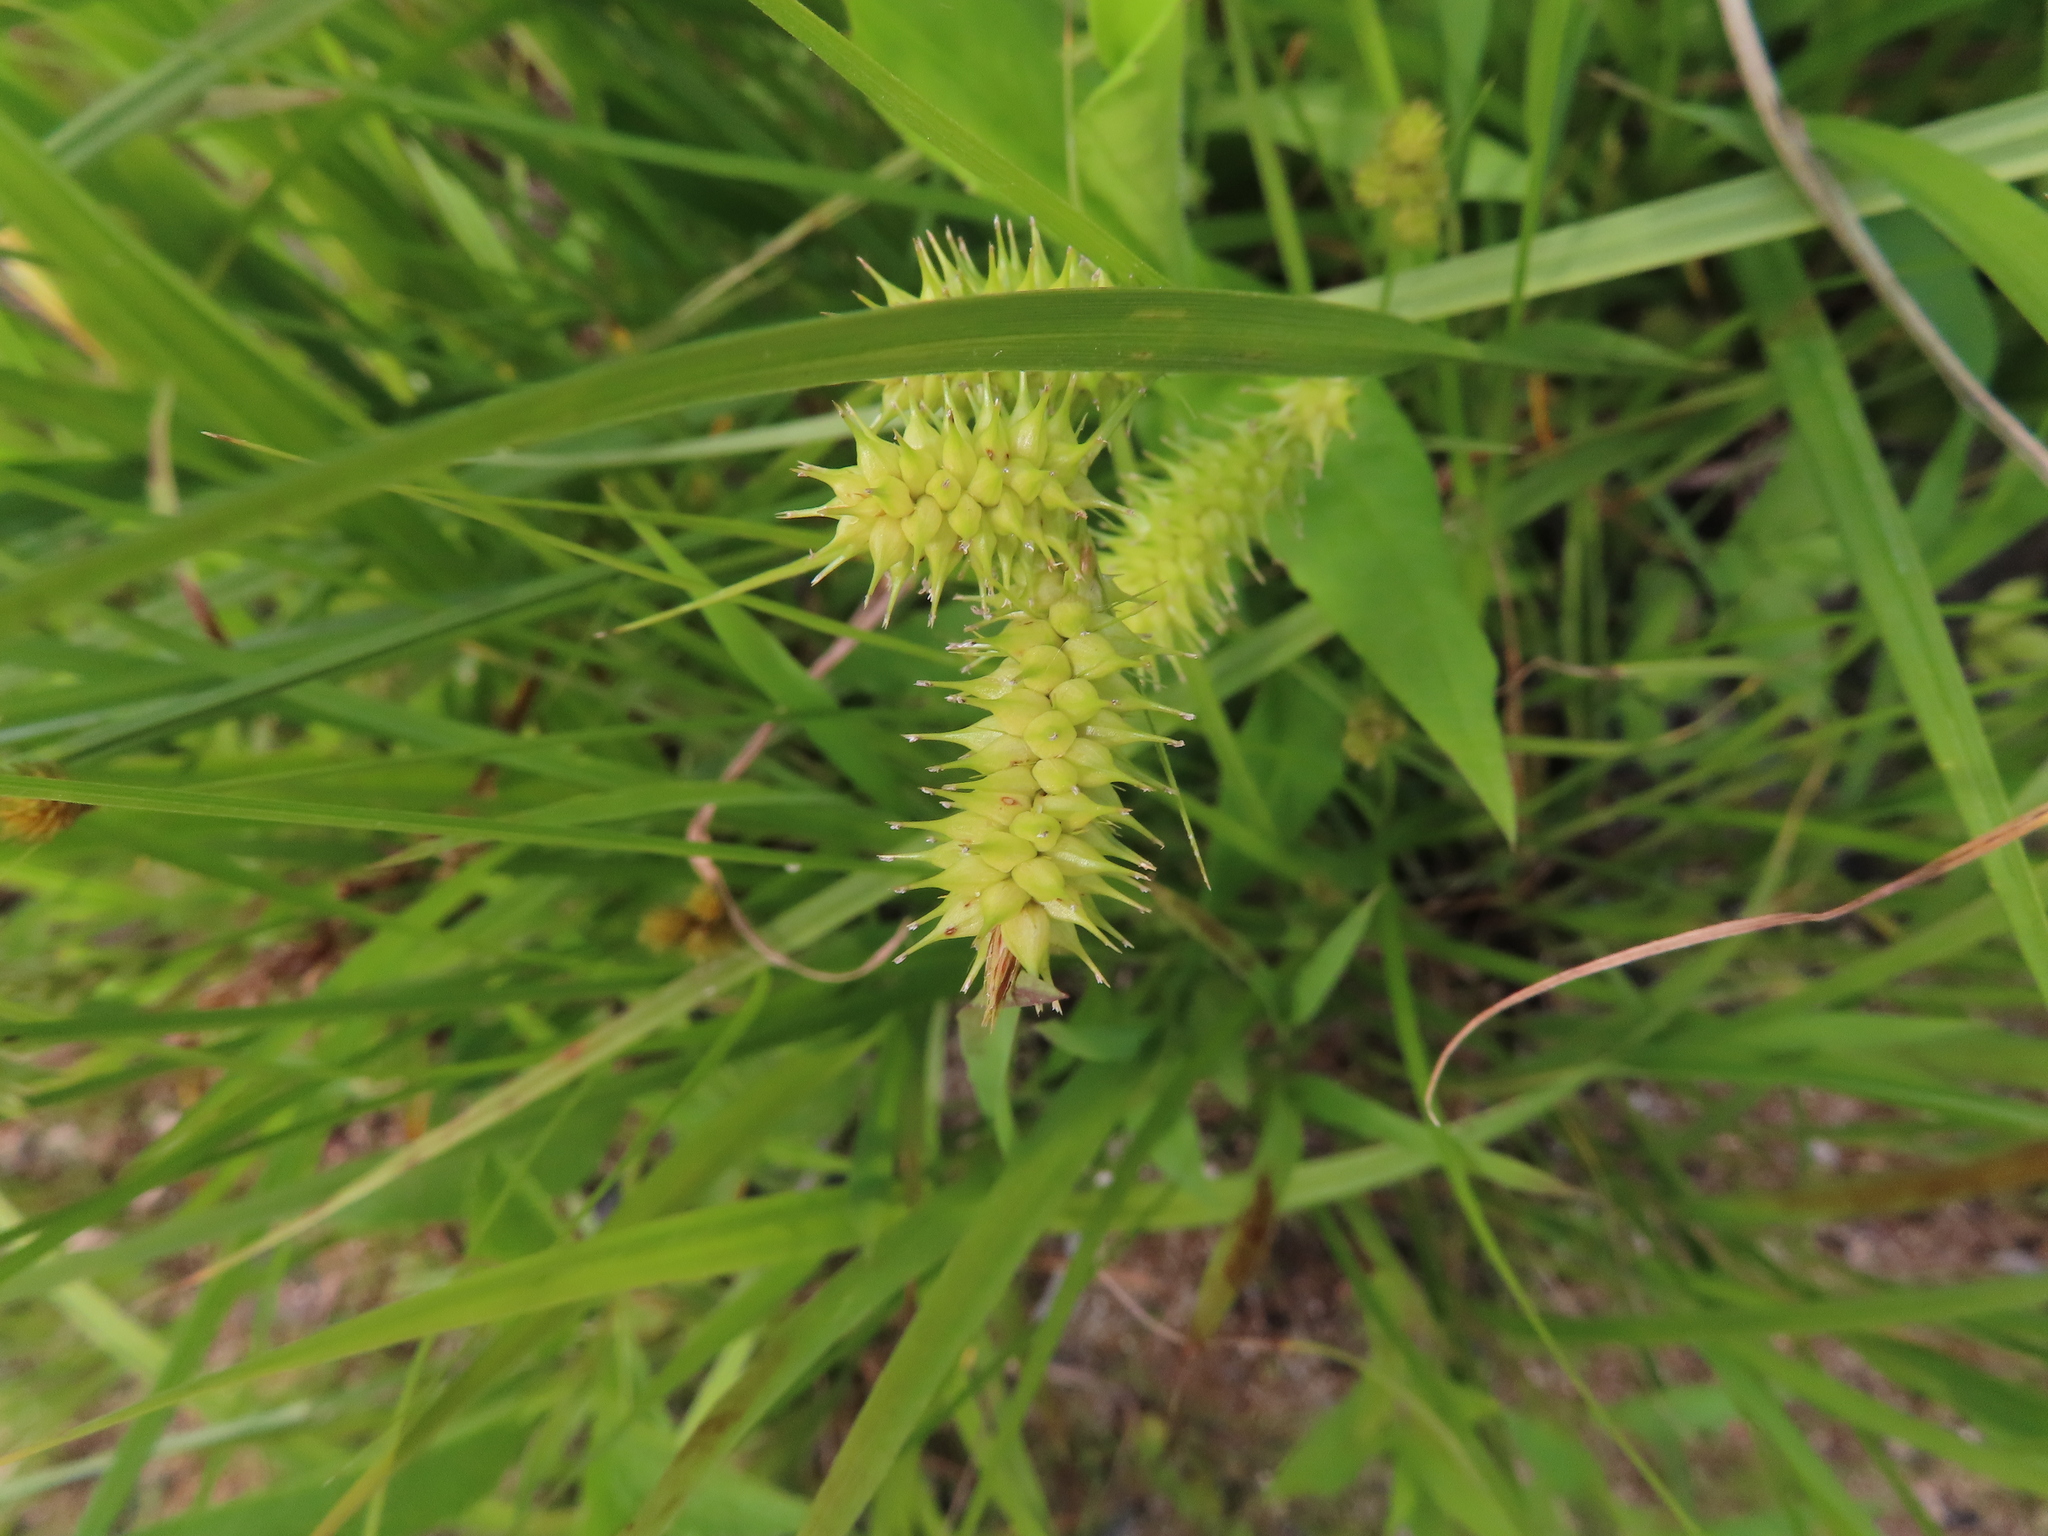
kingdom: Plantae
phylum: Tracheophyta
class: Liliopsida
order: Poales
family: Cyperaceae
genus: Carex
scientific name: Carex hystericina
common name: Bottlebrush sedge
